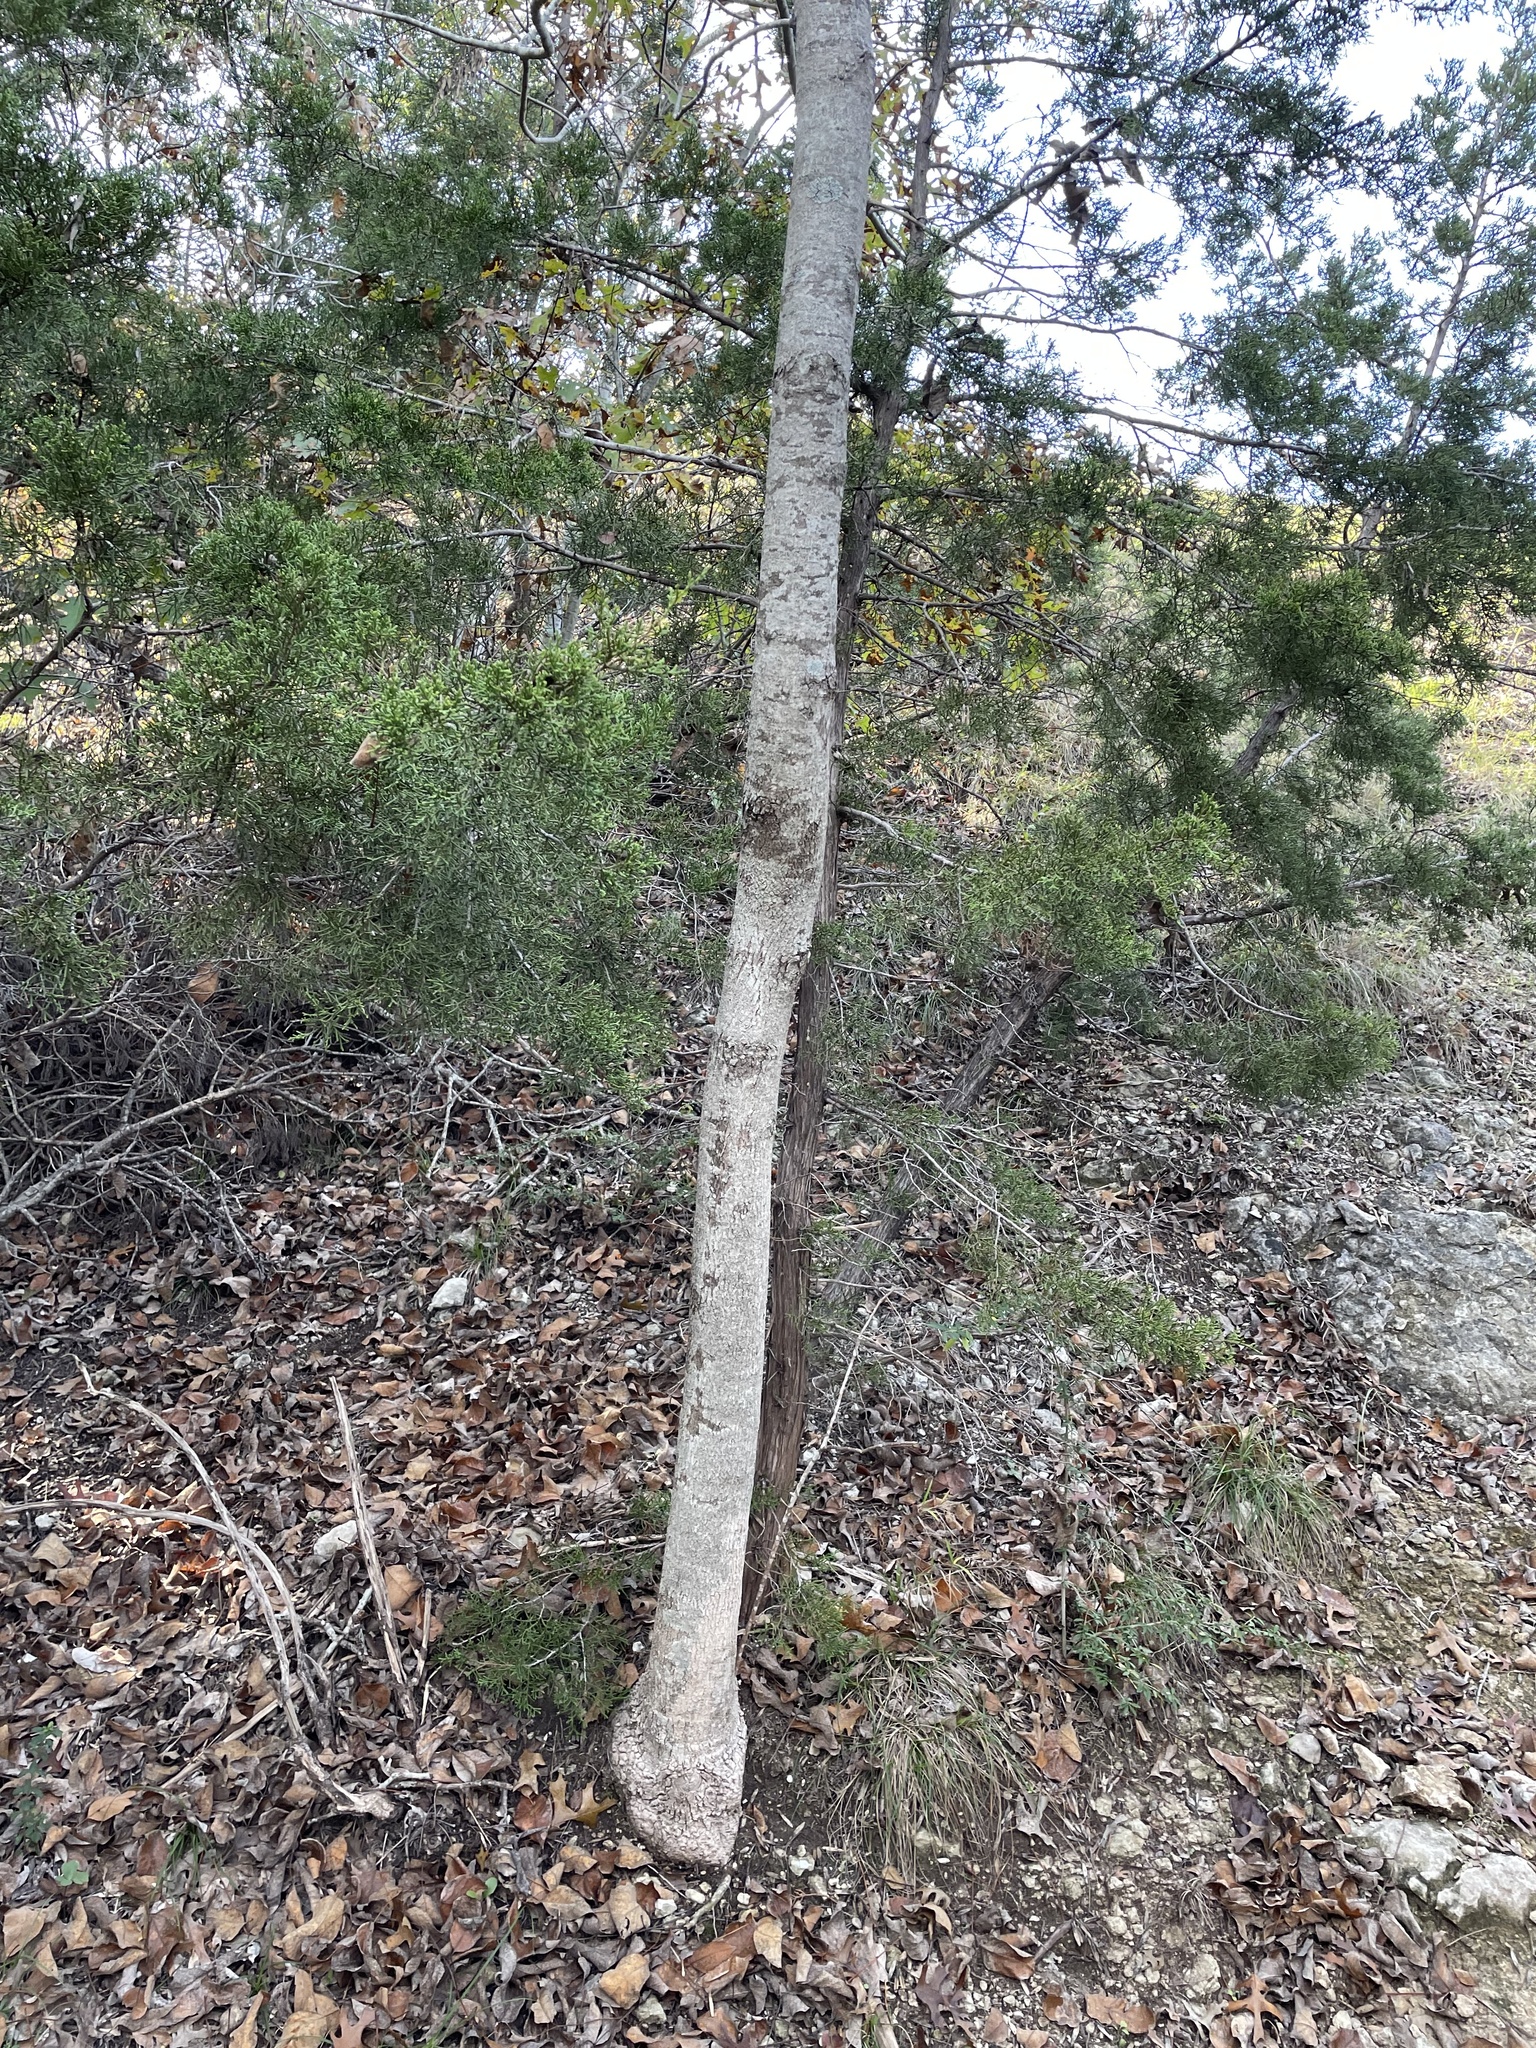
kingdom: Plantae
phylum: Tracheophyta
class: Magnoliopsida
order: Lamiales
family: Oleaceae
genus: Fraxinus
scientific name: Fraxinus albicans
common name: Texas ash
